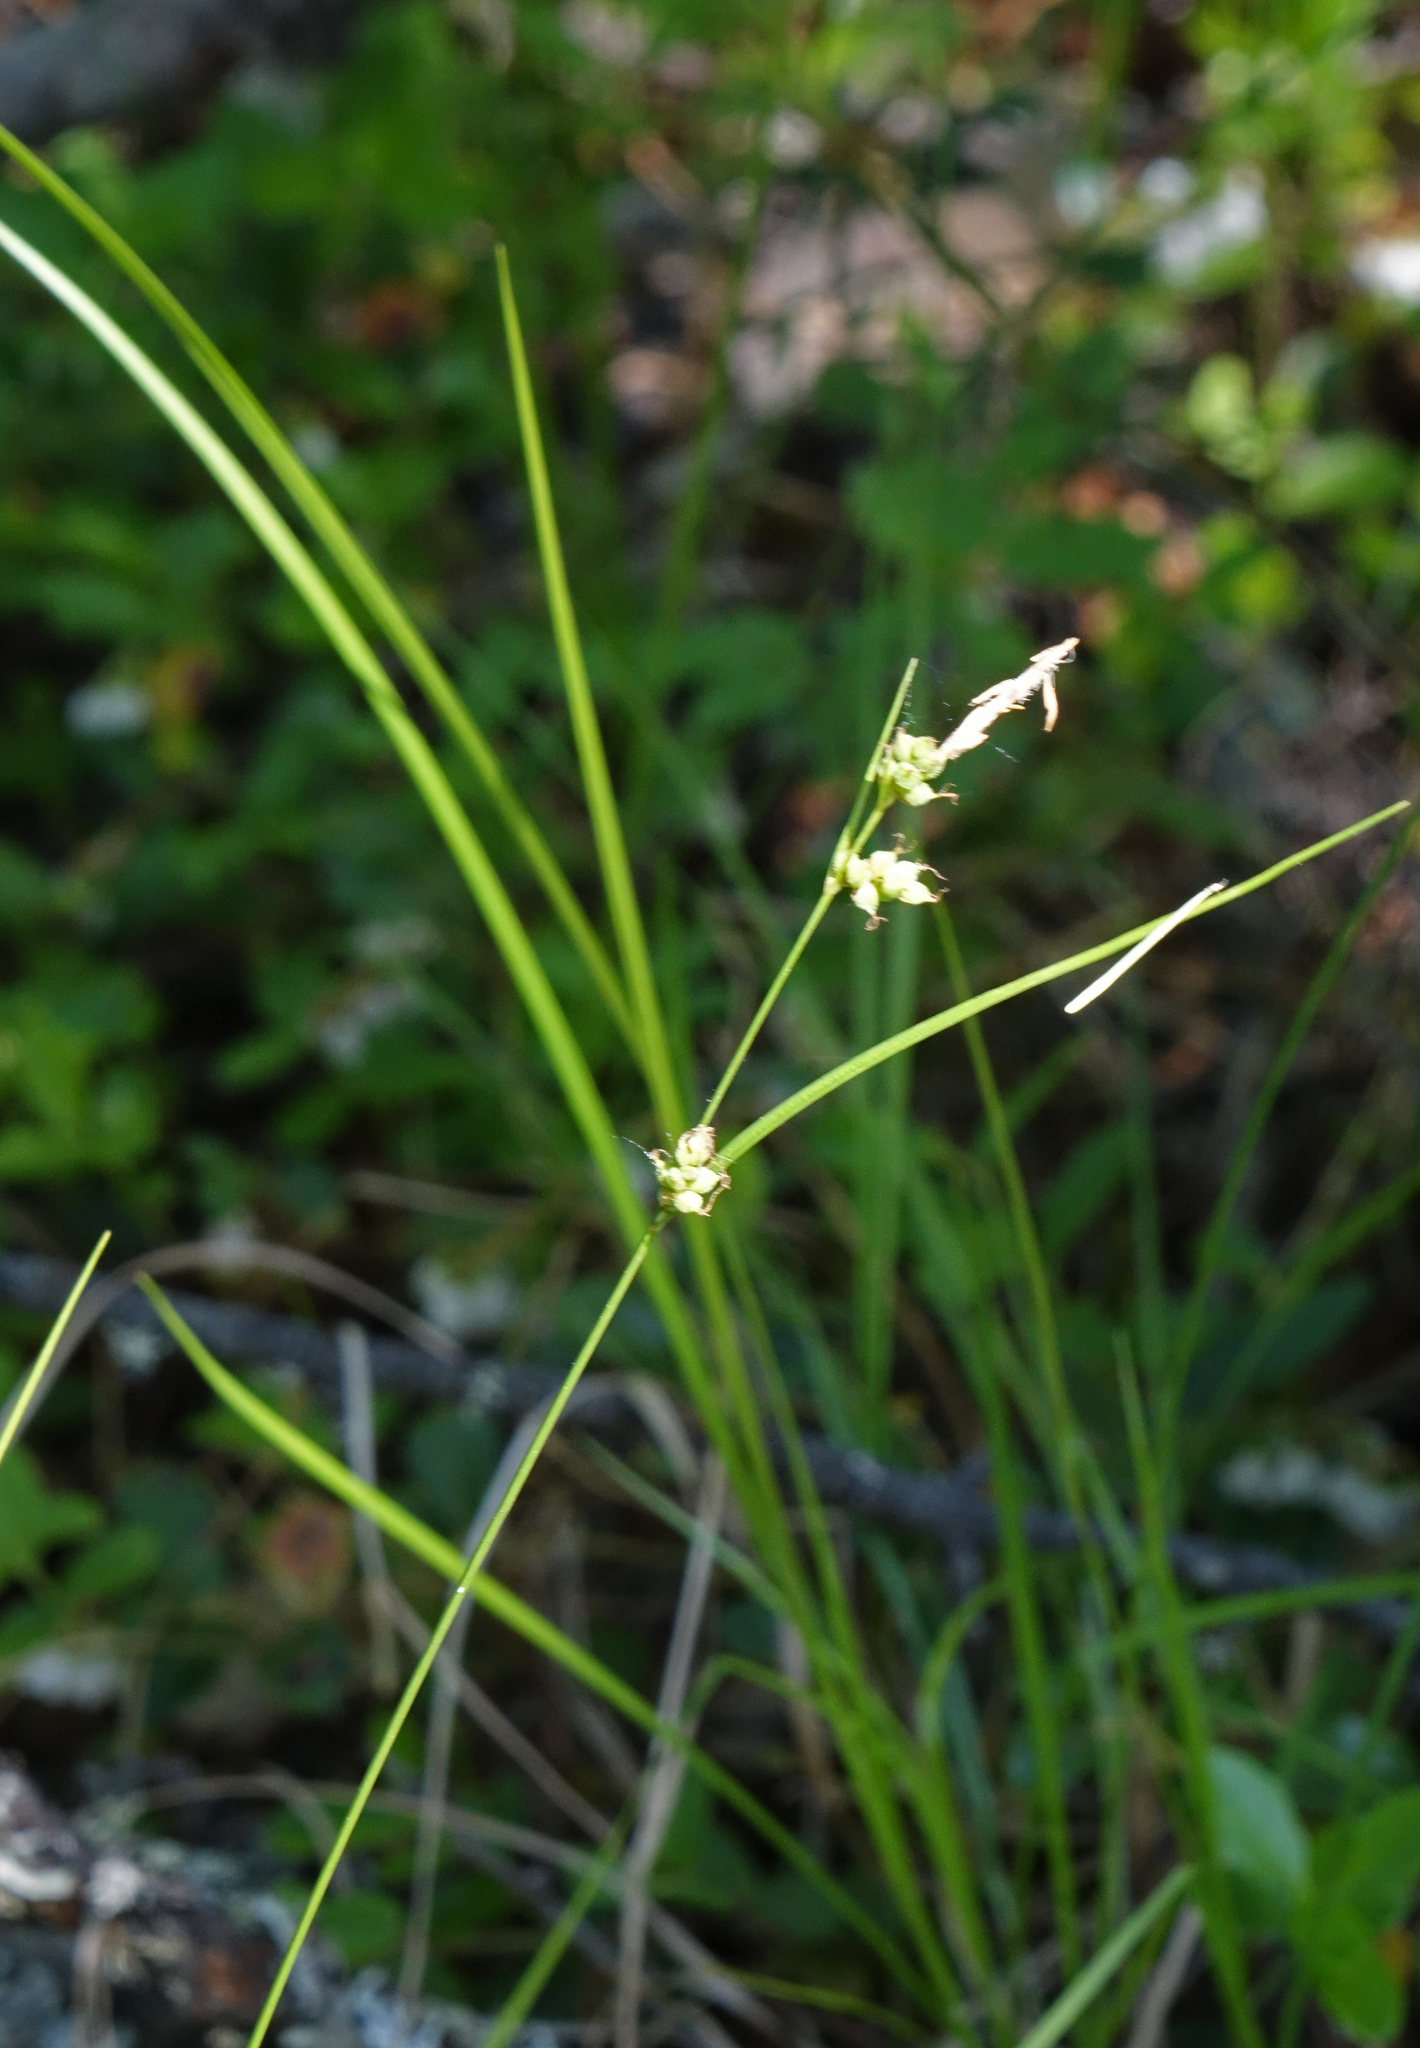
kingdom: Plantae
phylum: Tracheophyta
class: Liliopsida
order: Poales
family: Cyperaceae
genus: Carex
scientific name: Carex globularis
